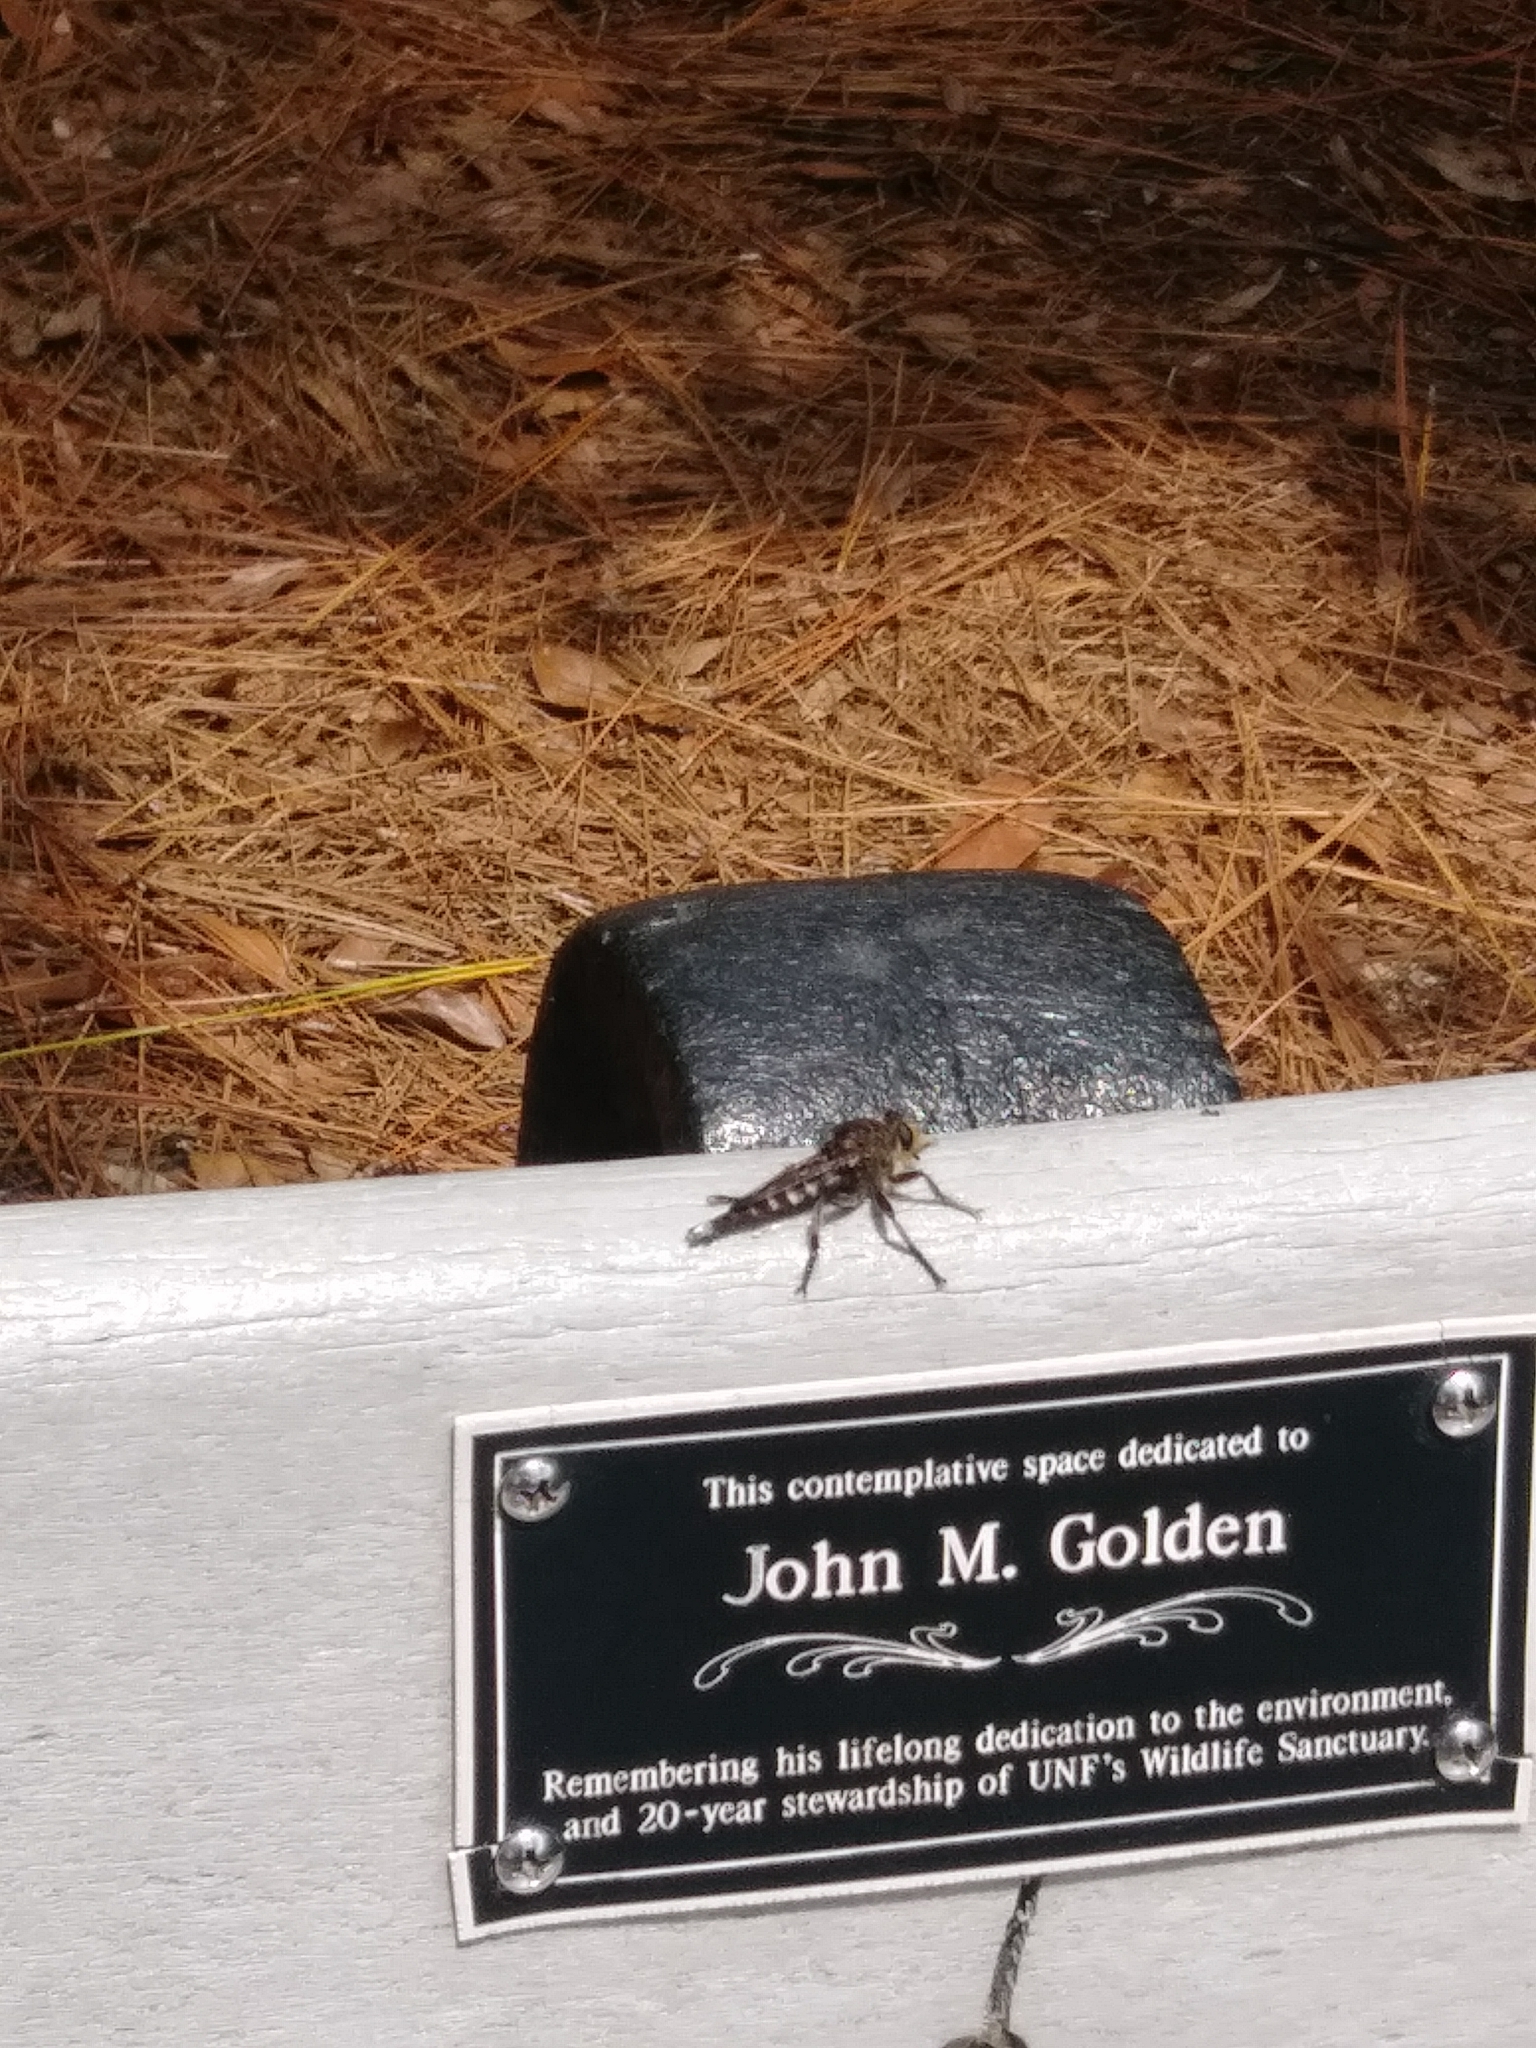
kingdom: Animalia
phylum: Arthropoda
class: Insecta
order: Diptera
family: Asilidae
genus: Promachus
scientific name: Promachus bastardii
